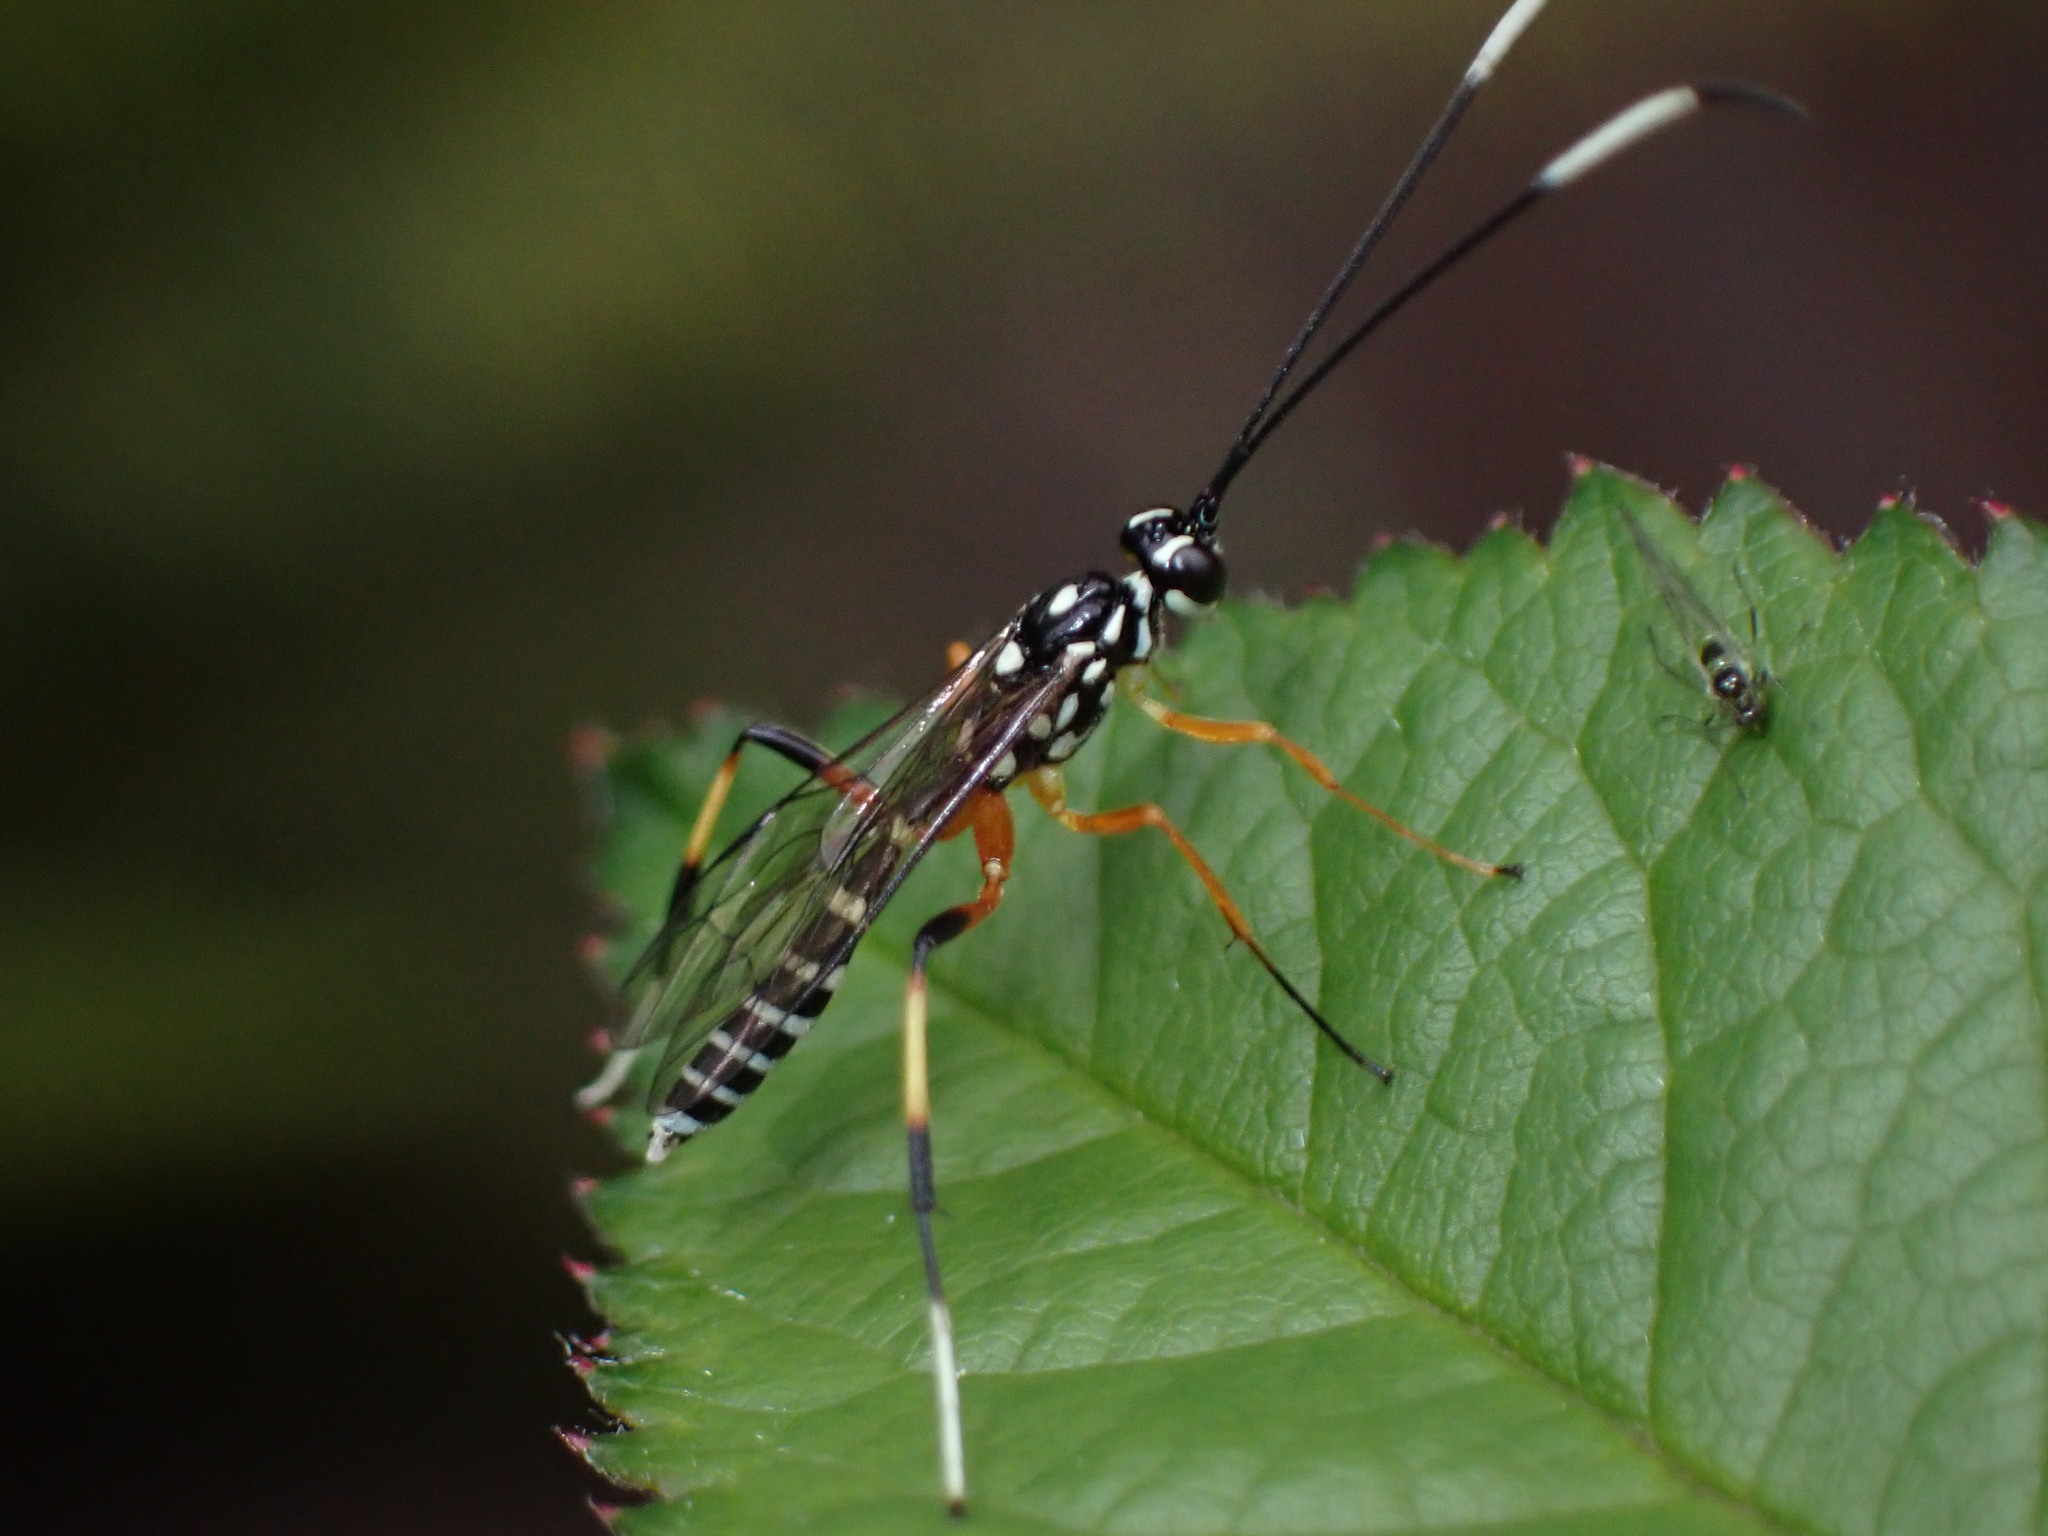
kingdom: Animalia
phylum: Arthropoda
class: Insecta
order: Hymenoptera
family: Ichneumonidae
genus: Xanthocryptus
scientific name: Xanthocryptus novozealandicus
